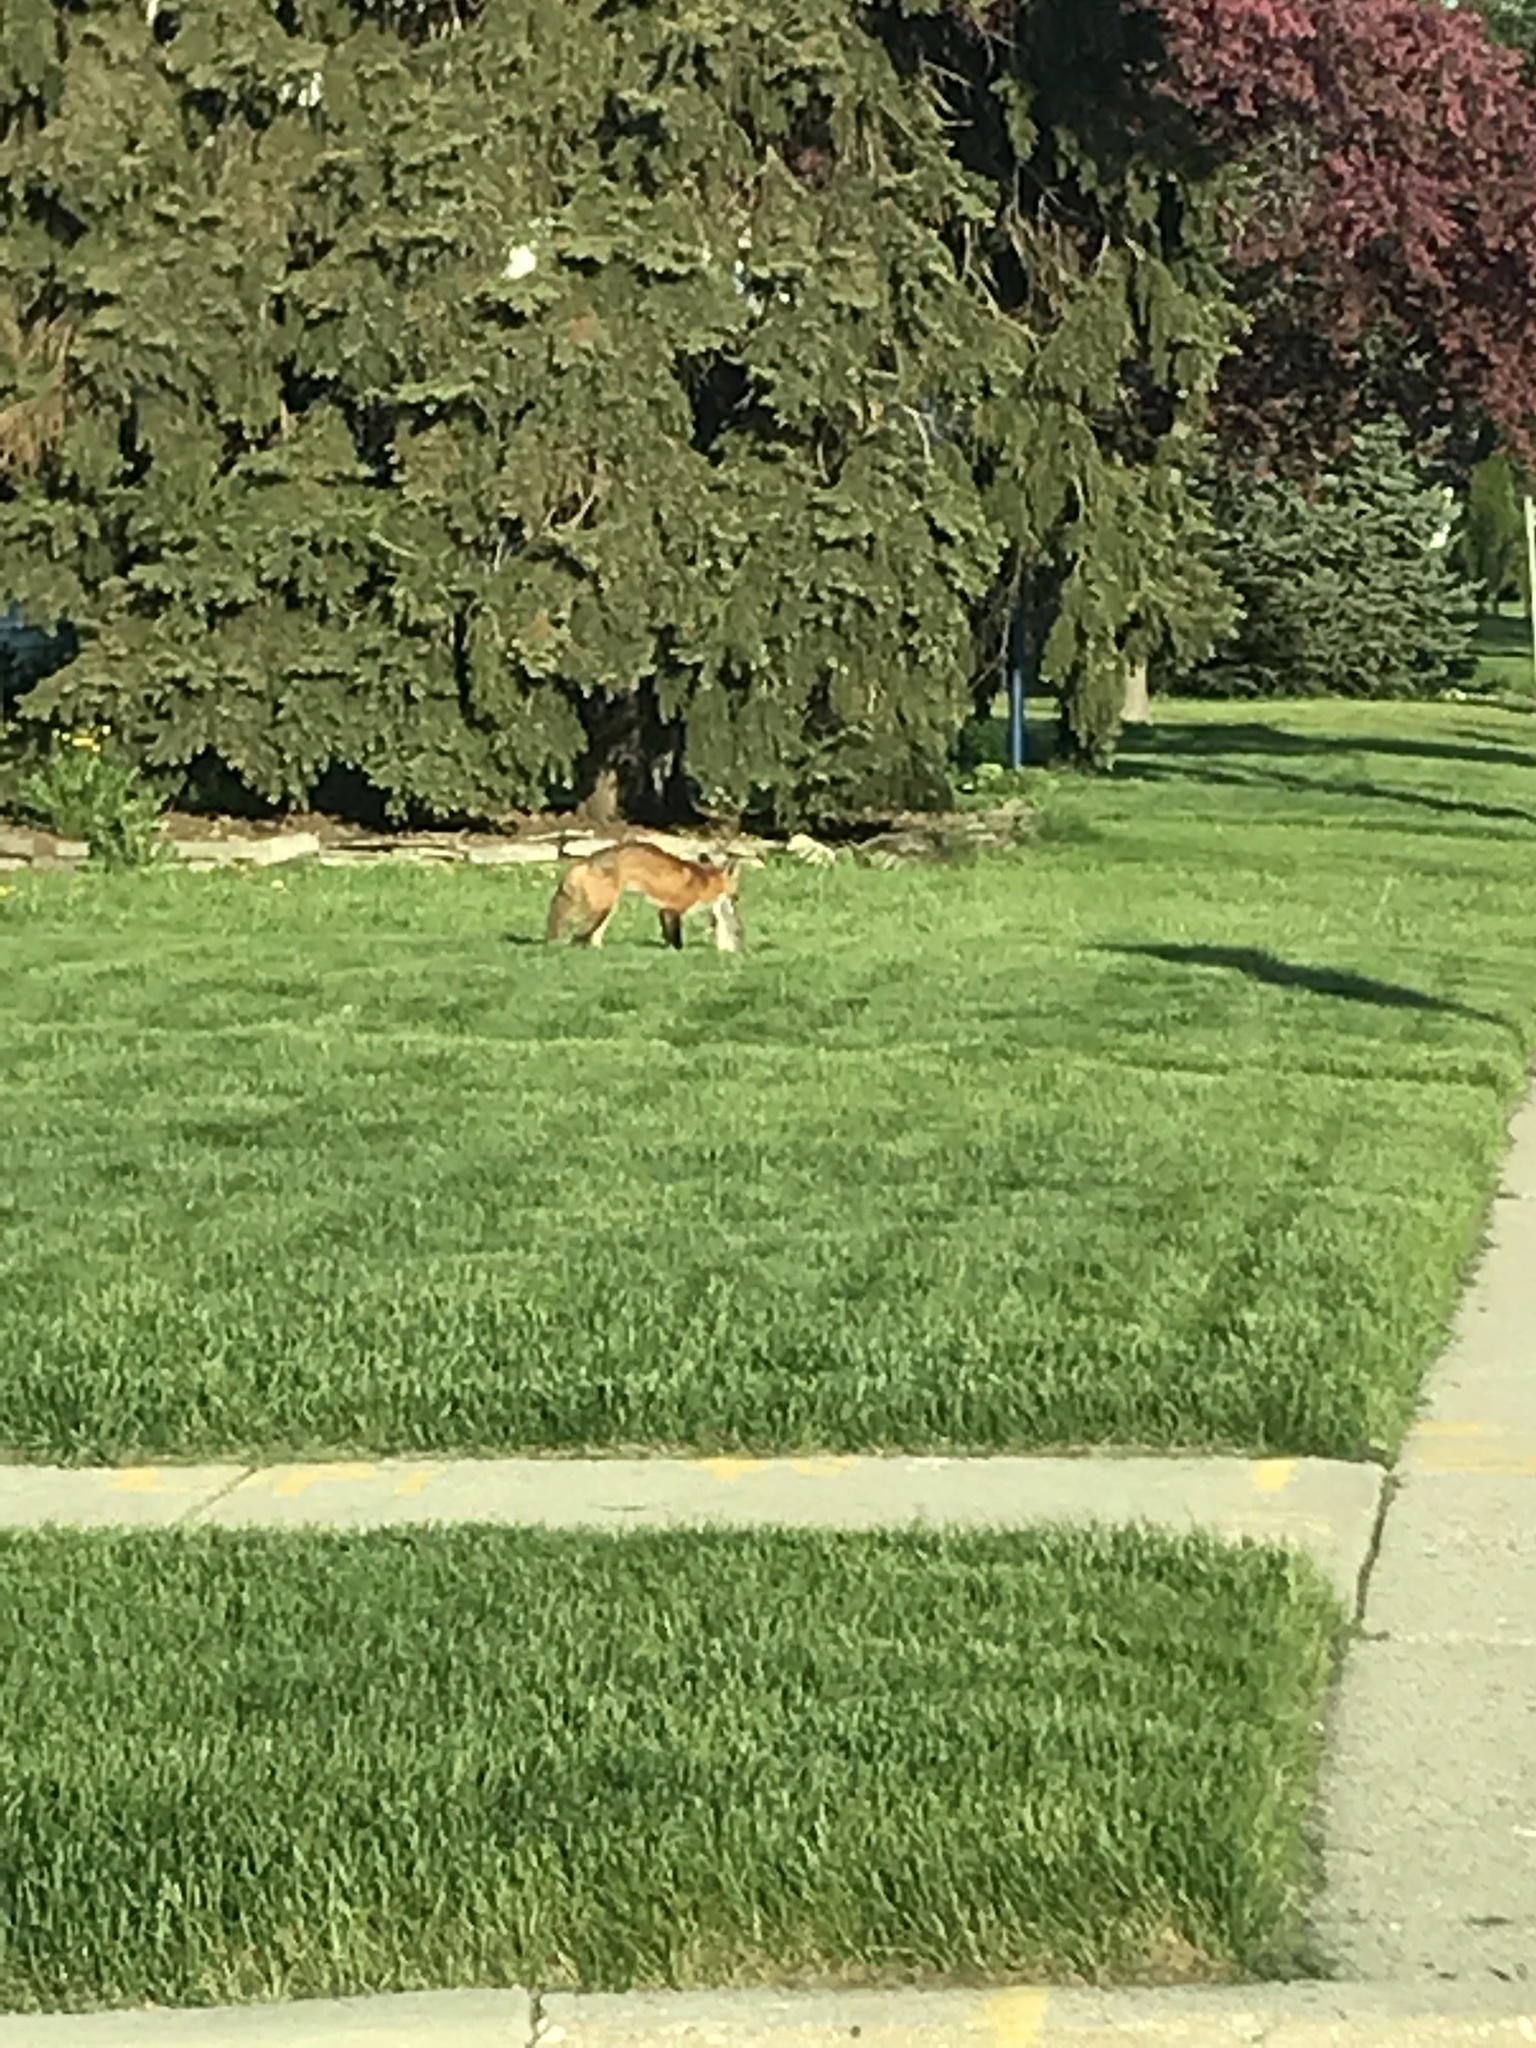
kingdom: Animalia
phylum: Chordata
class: Mammalia
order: Carnivora
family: Canidae
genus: Vulpes
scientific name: Vulpes vulpes
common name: Red fox
